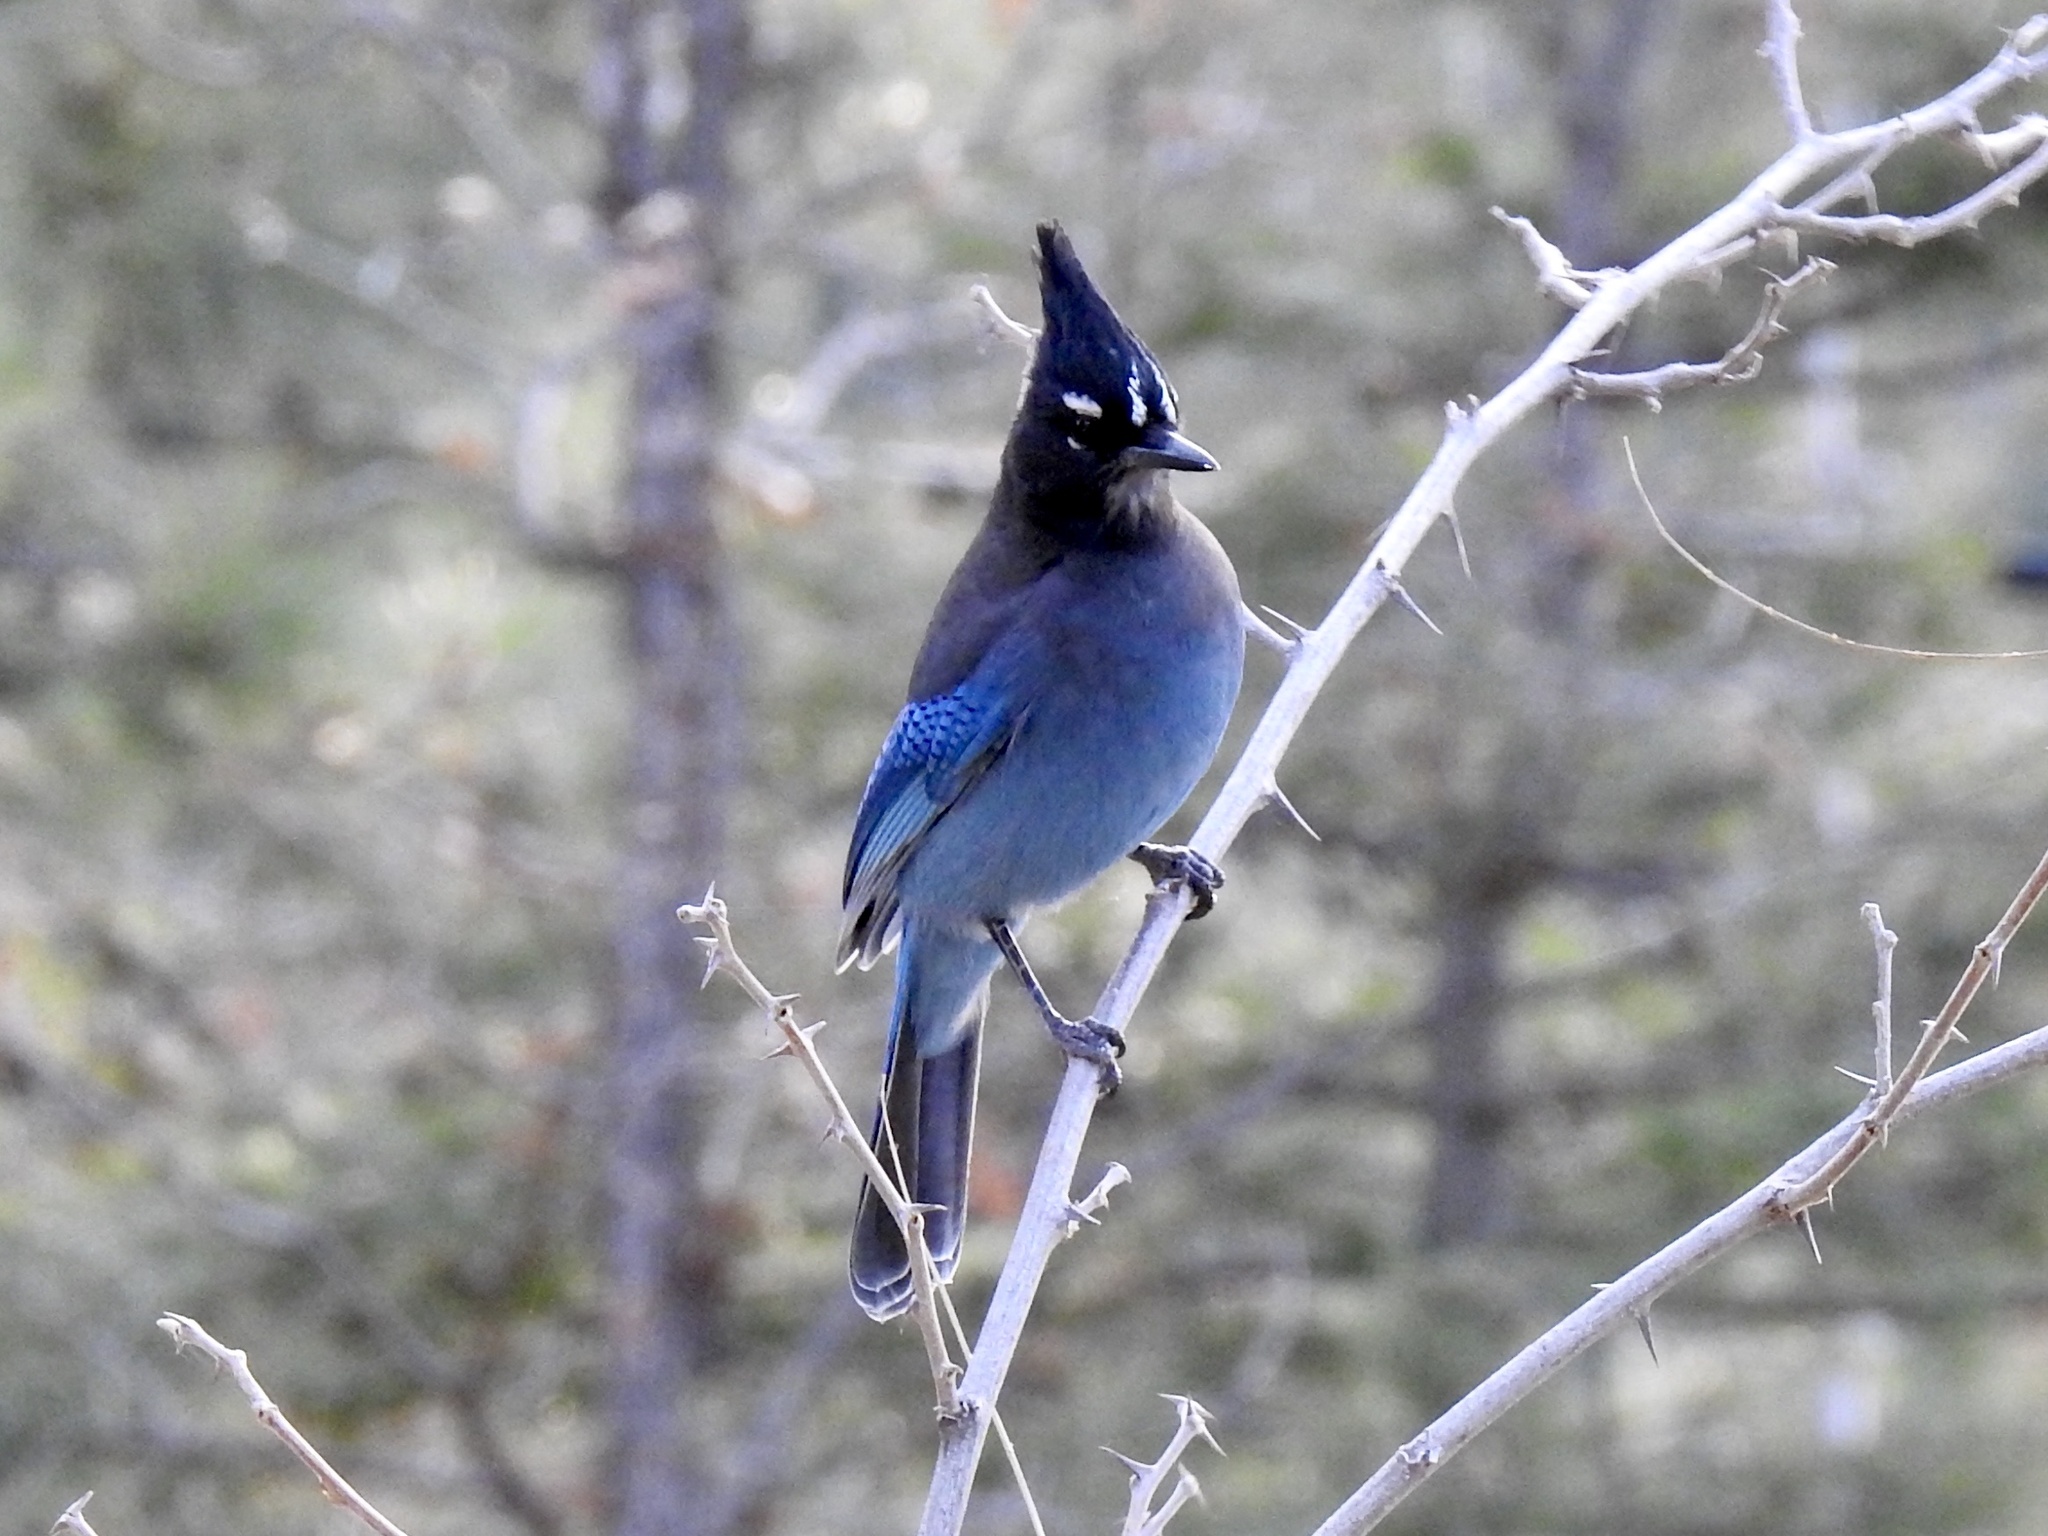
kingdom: Animalia
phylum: Chordata
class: Aves
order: Passeriformes
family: Corvidae
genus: Cyanocitta
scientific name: Cyanocitta stelleri
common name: Steller's jay
